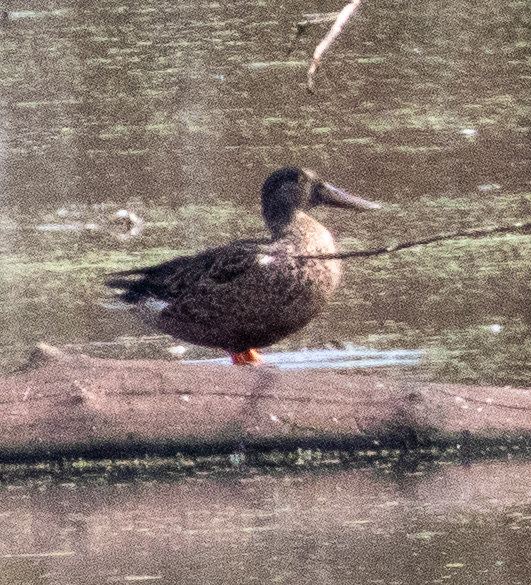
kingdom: Animalia
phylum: Chordata
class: Aves
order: Anseriformes
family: Anatidae
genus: Spatula
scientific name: Spatula clypeata
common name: Northern shoveler
